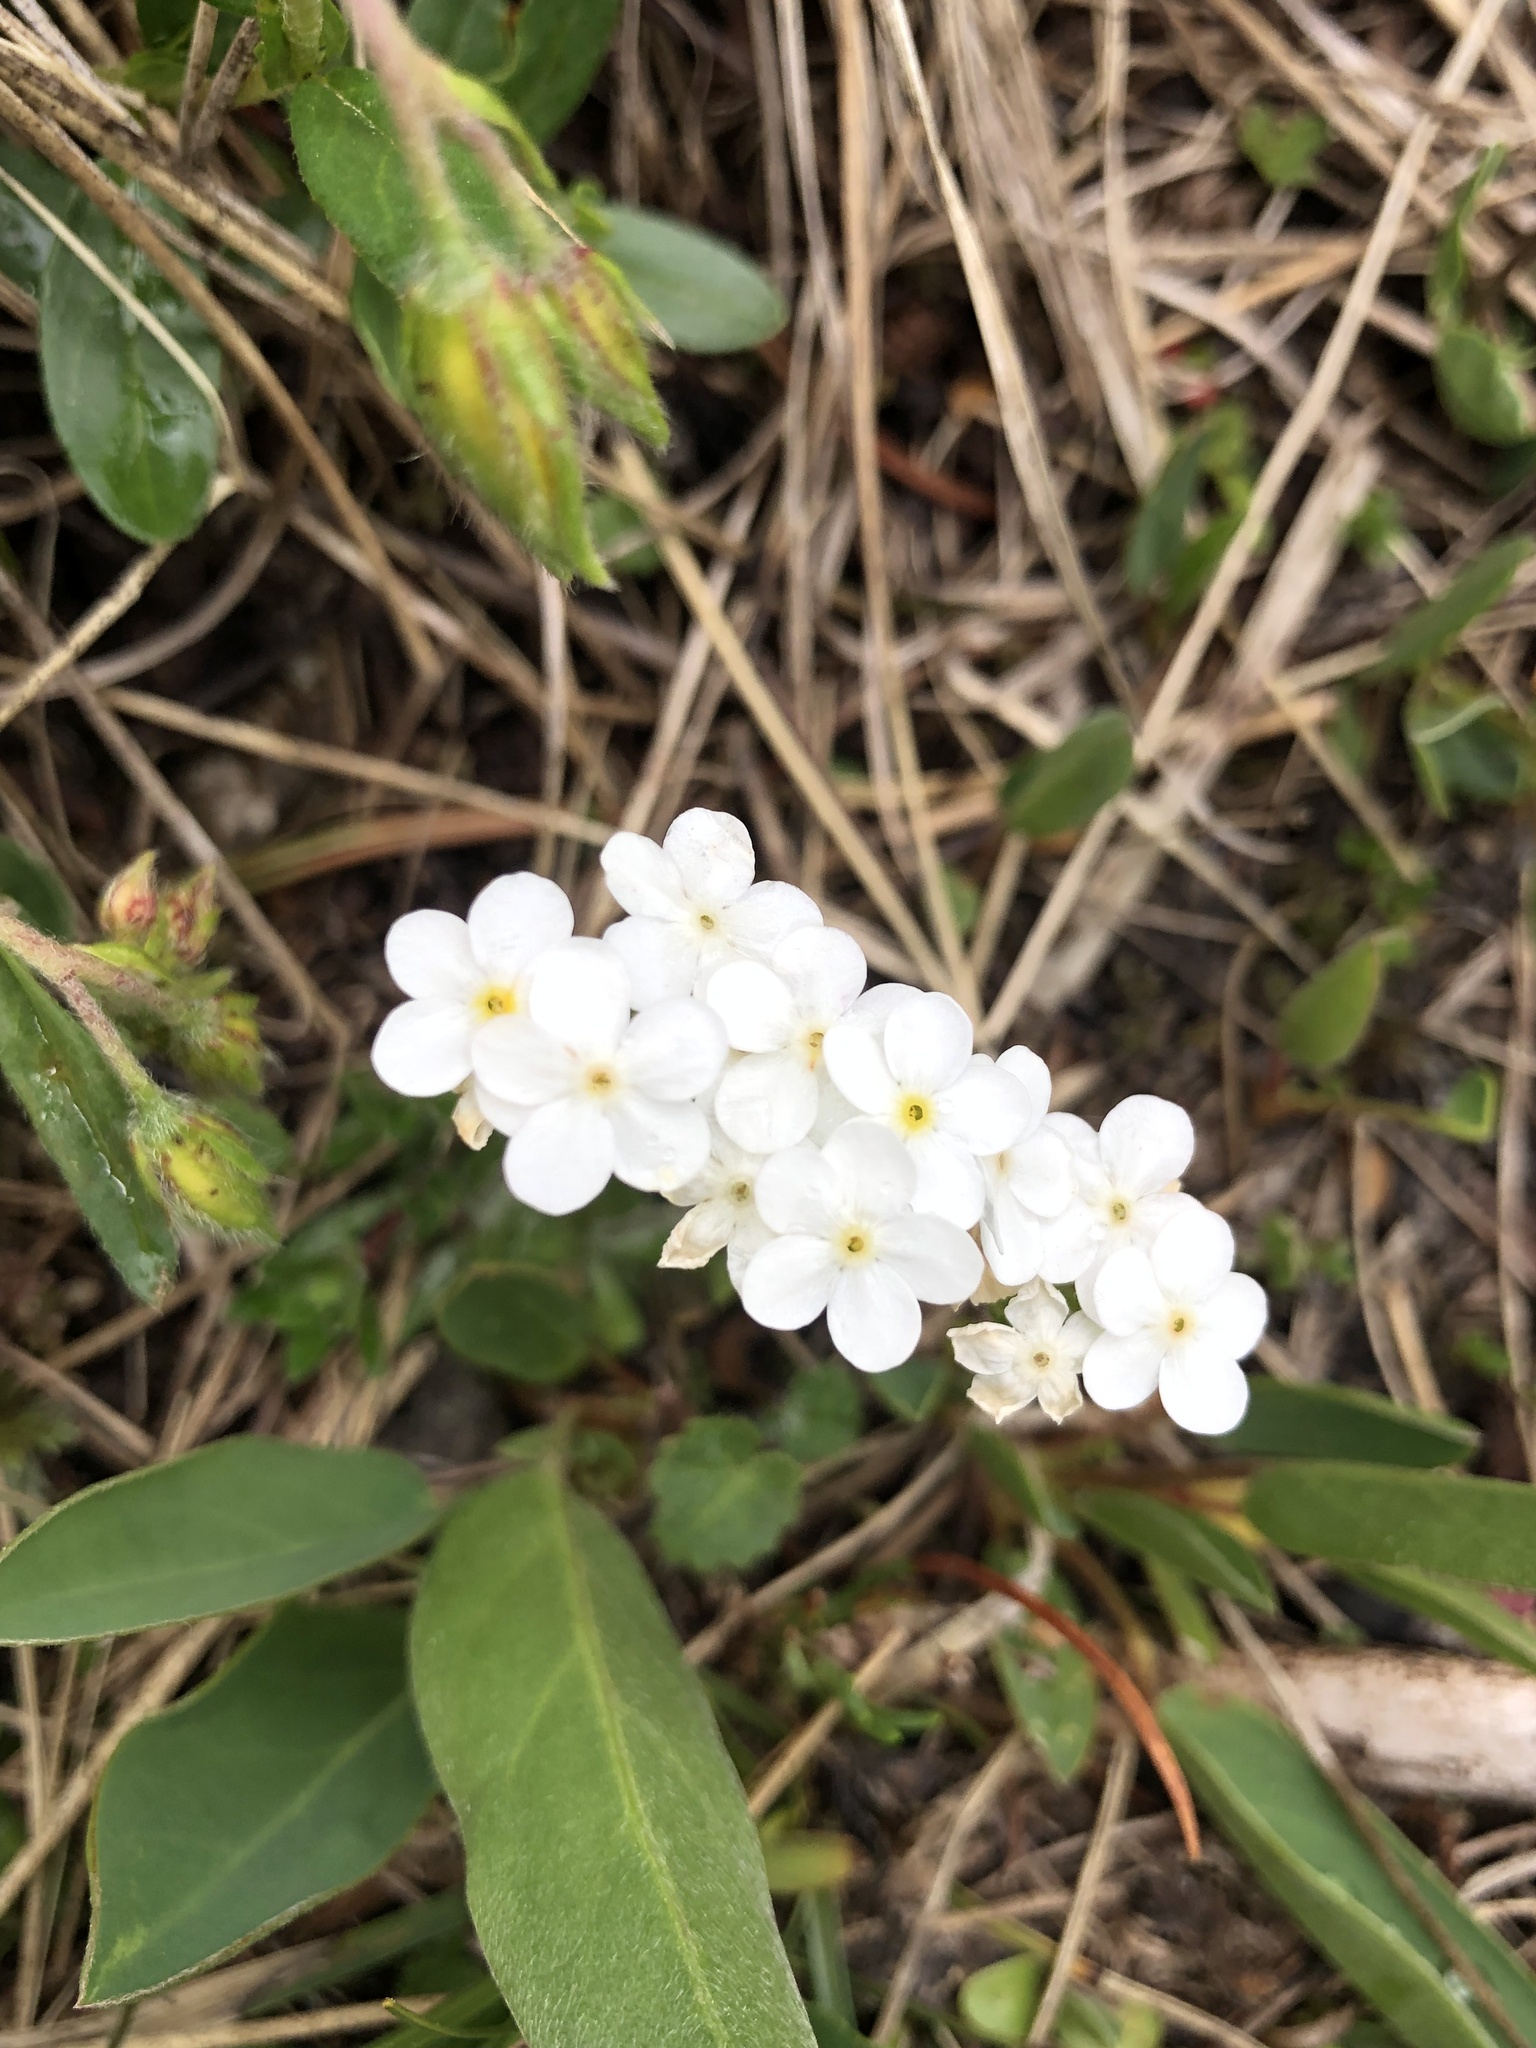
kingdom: Plantae
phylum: Tracheophyta
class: Magnoliopsida
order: Ericales
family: Primulaceae
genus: Androsace
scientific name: Androsace chamaejasme
